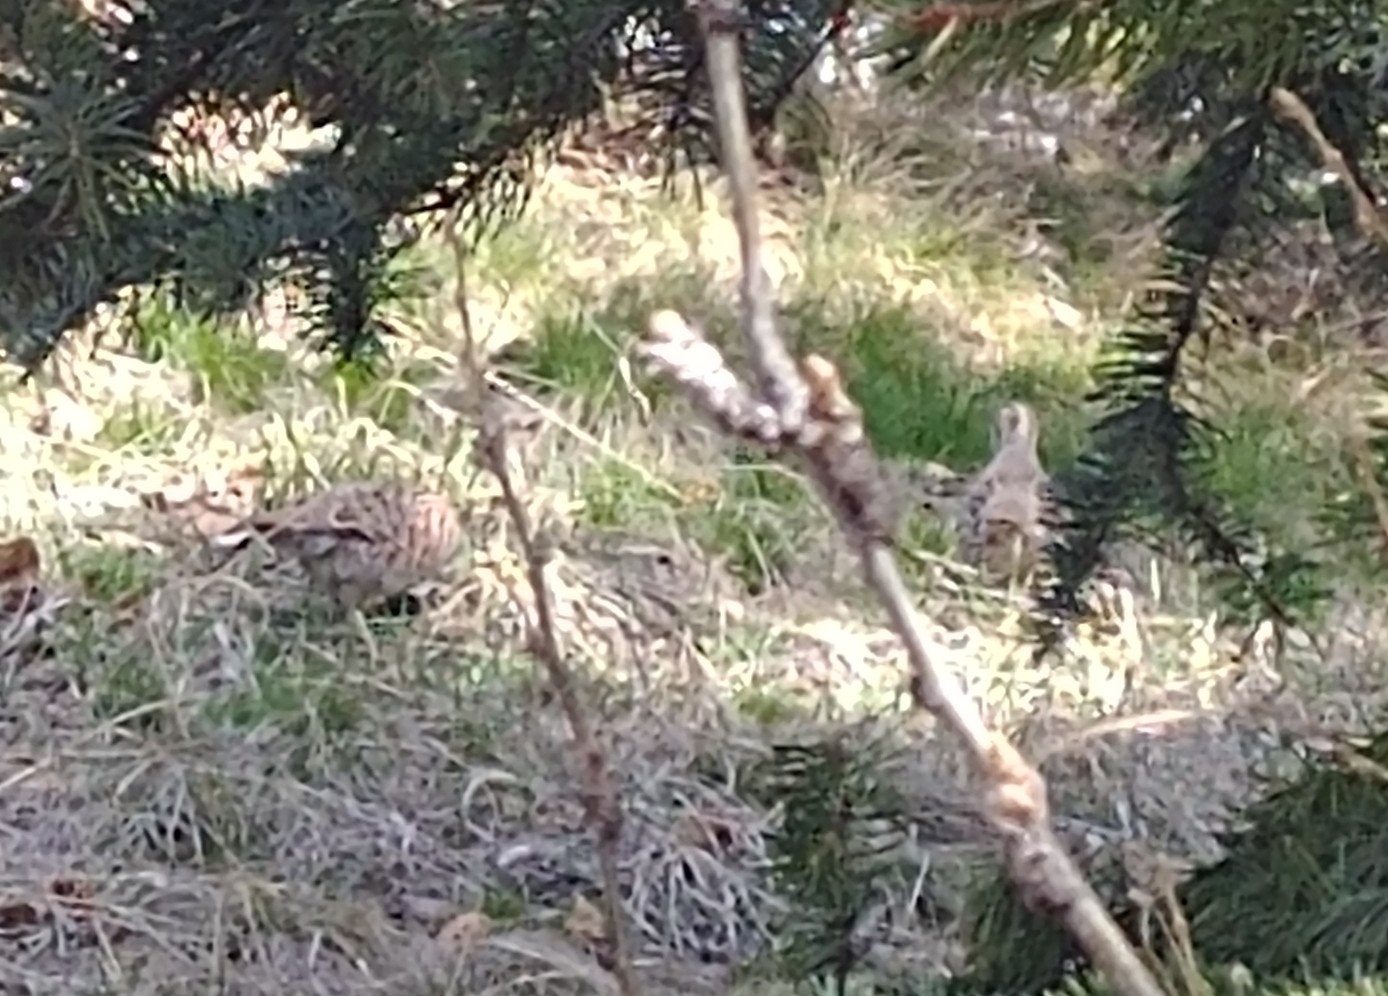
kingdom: Animalia
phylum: Chordata
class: Aves
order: Galliformes
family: Phasianidae
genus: Perdix
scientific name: Perdix perdix
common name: Grey partridge
